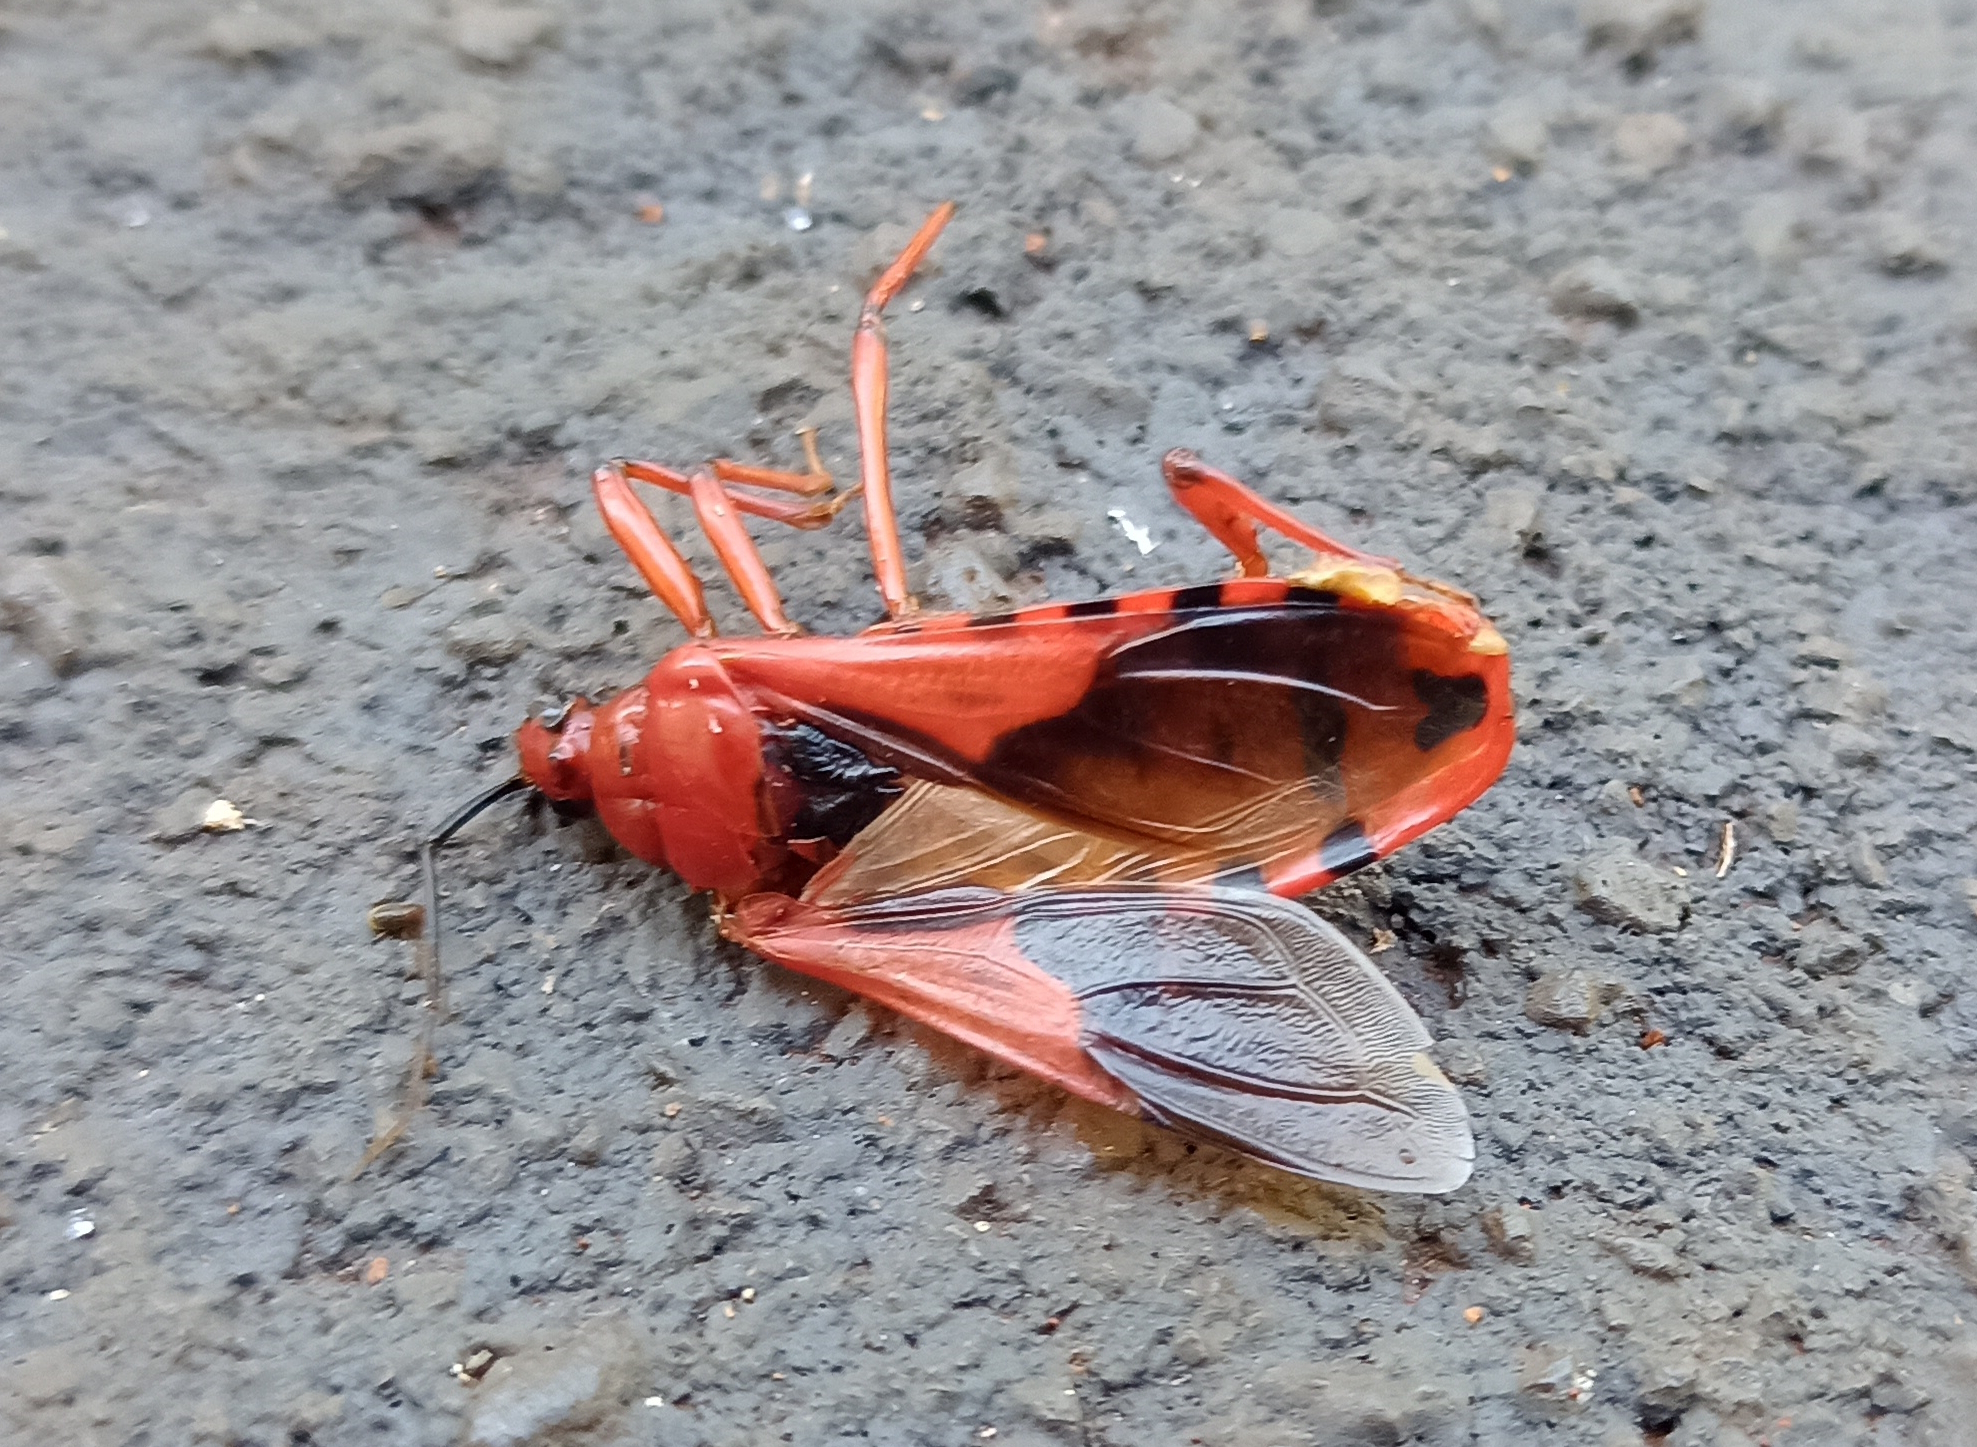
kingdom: Animalia
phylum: Arthropoda
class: Insecta
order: Hemiptera
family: Reduviidae
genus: Brontostoma
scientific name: Brontostoma rubrum
